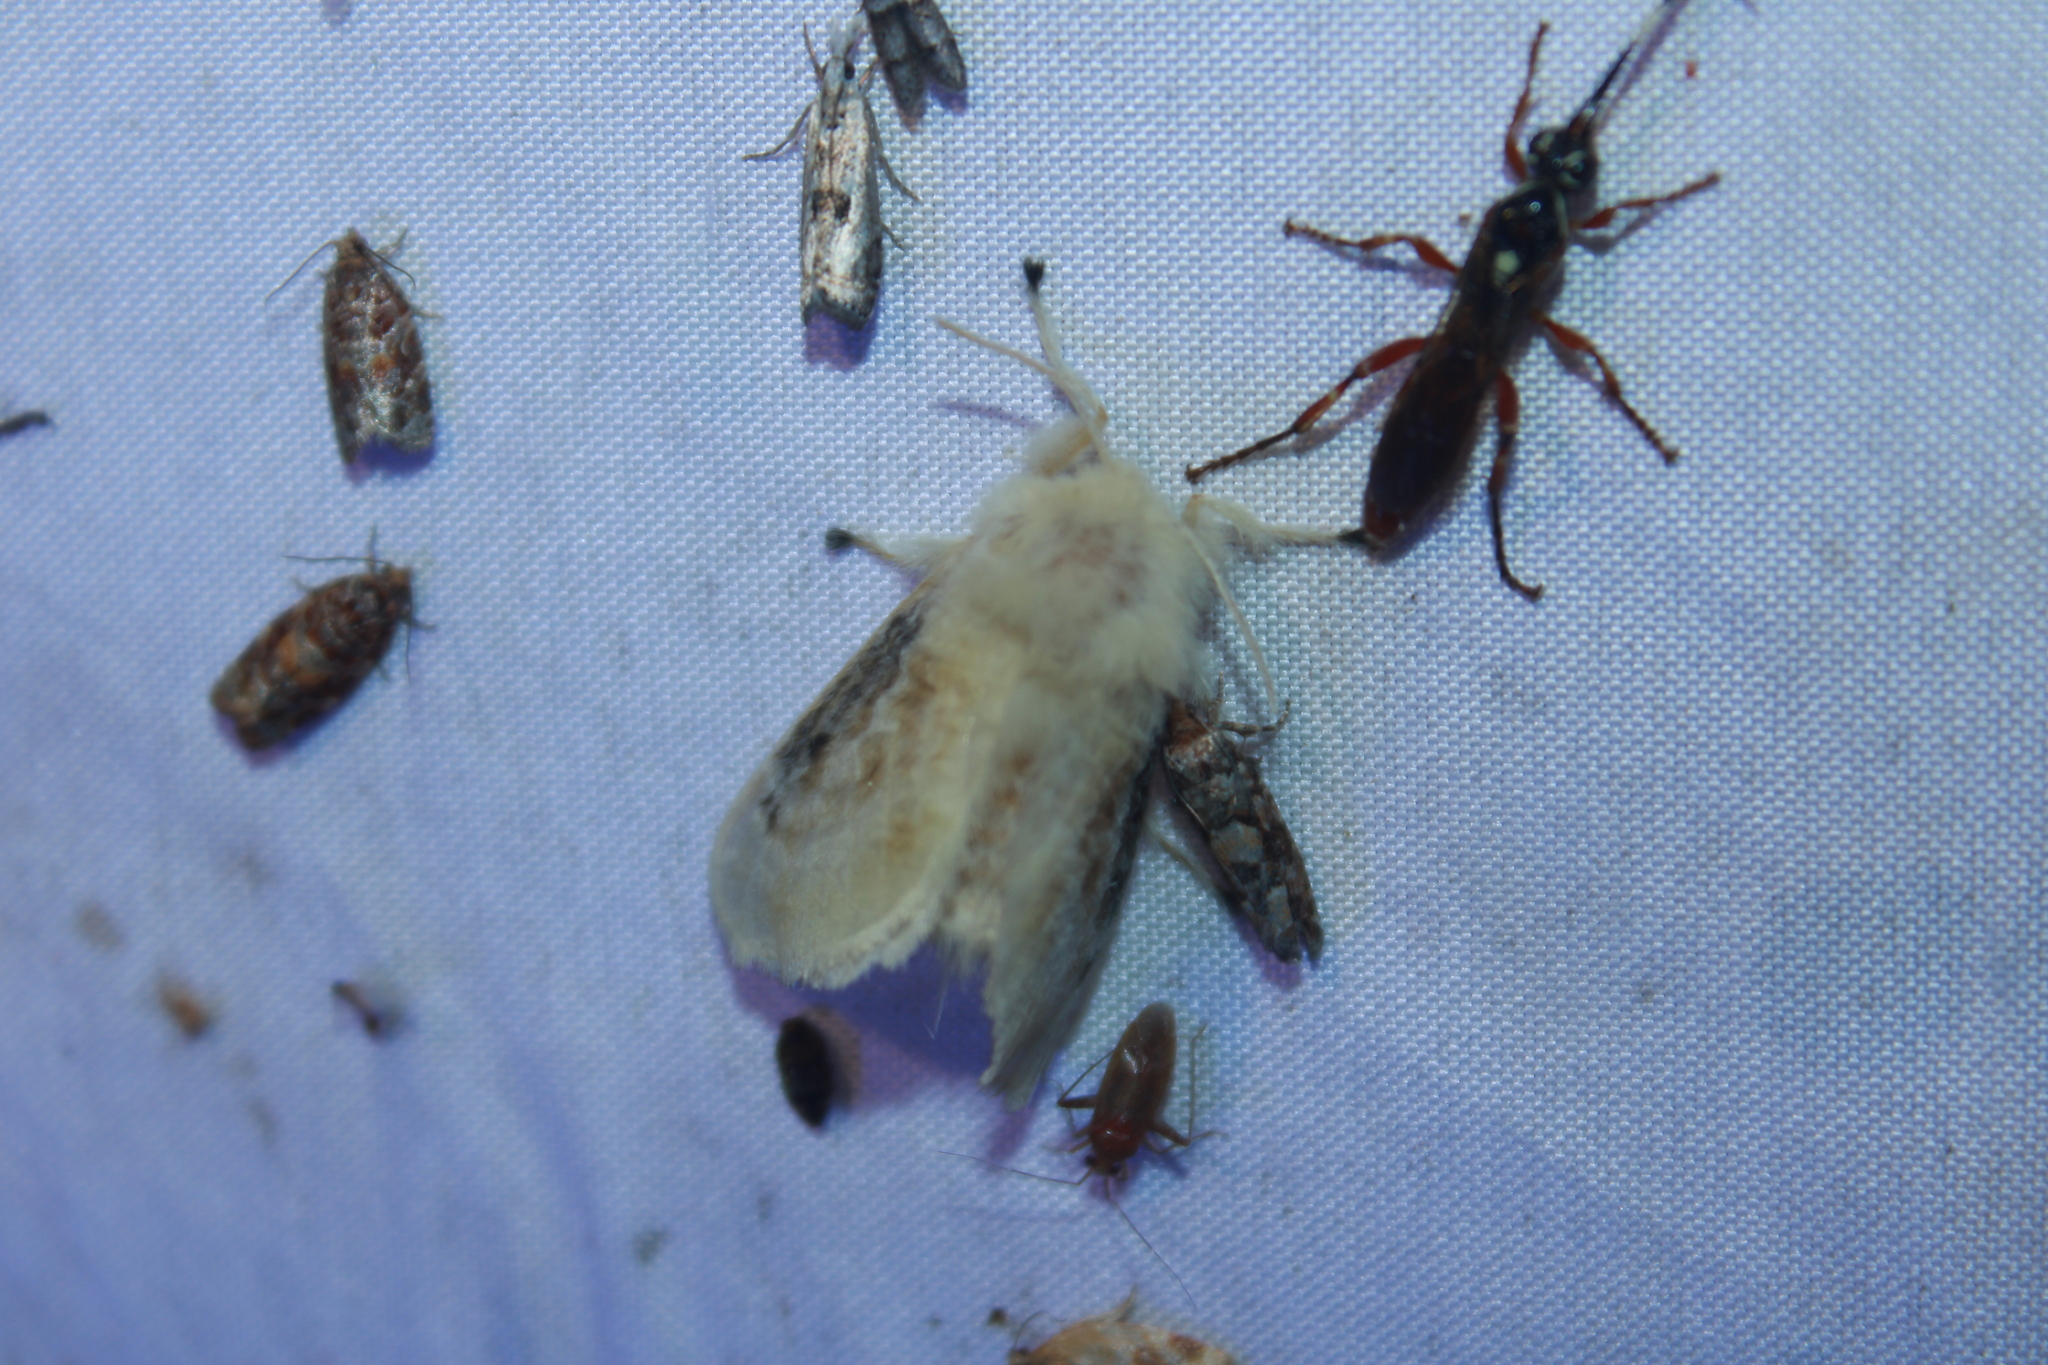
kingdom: Animalia
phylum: Arthropoda
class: Insecta
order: Lepidoptera
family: Megalopygidae
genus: Megalopyge
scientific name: Megalopyge crispata
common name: Black-waved flannel moth
